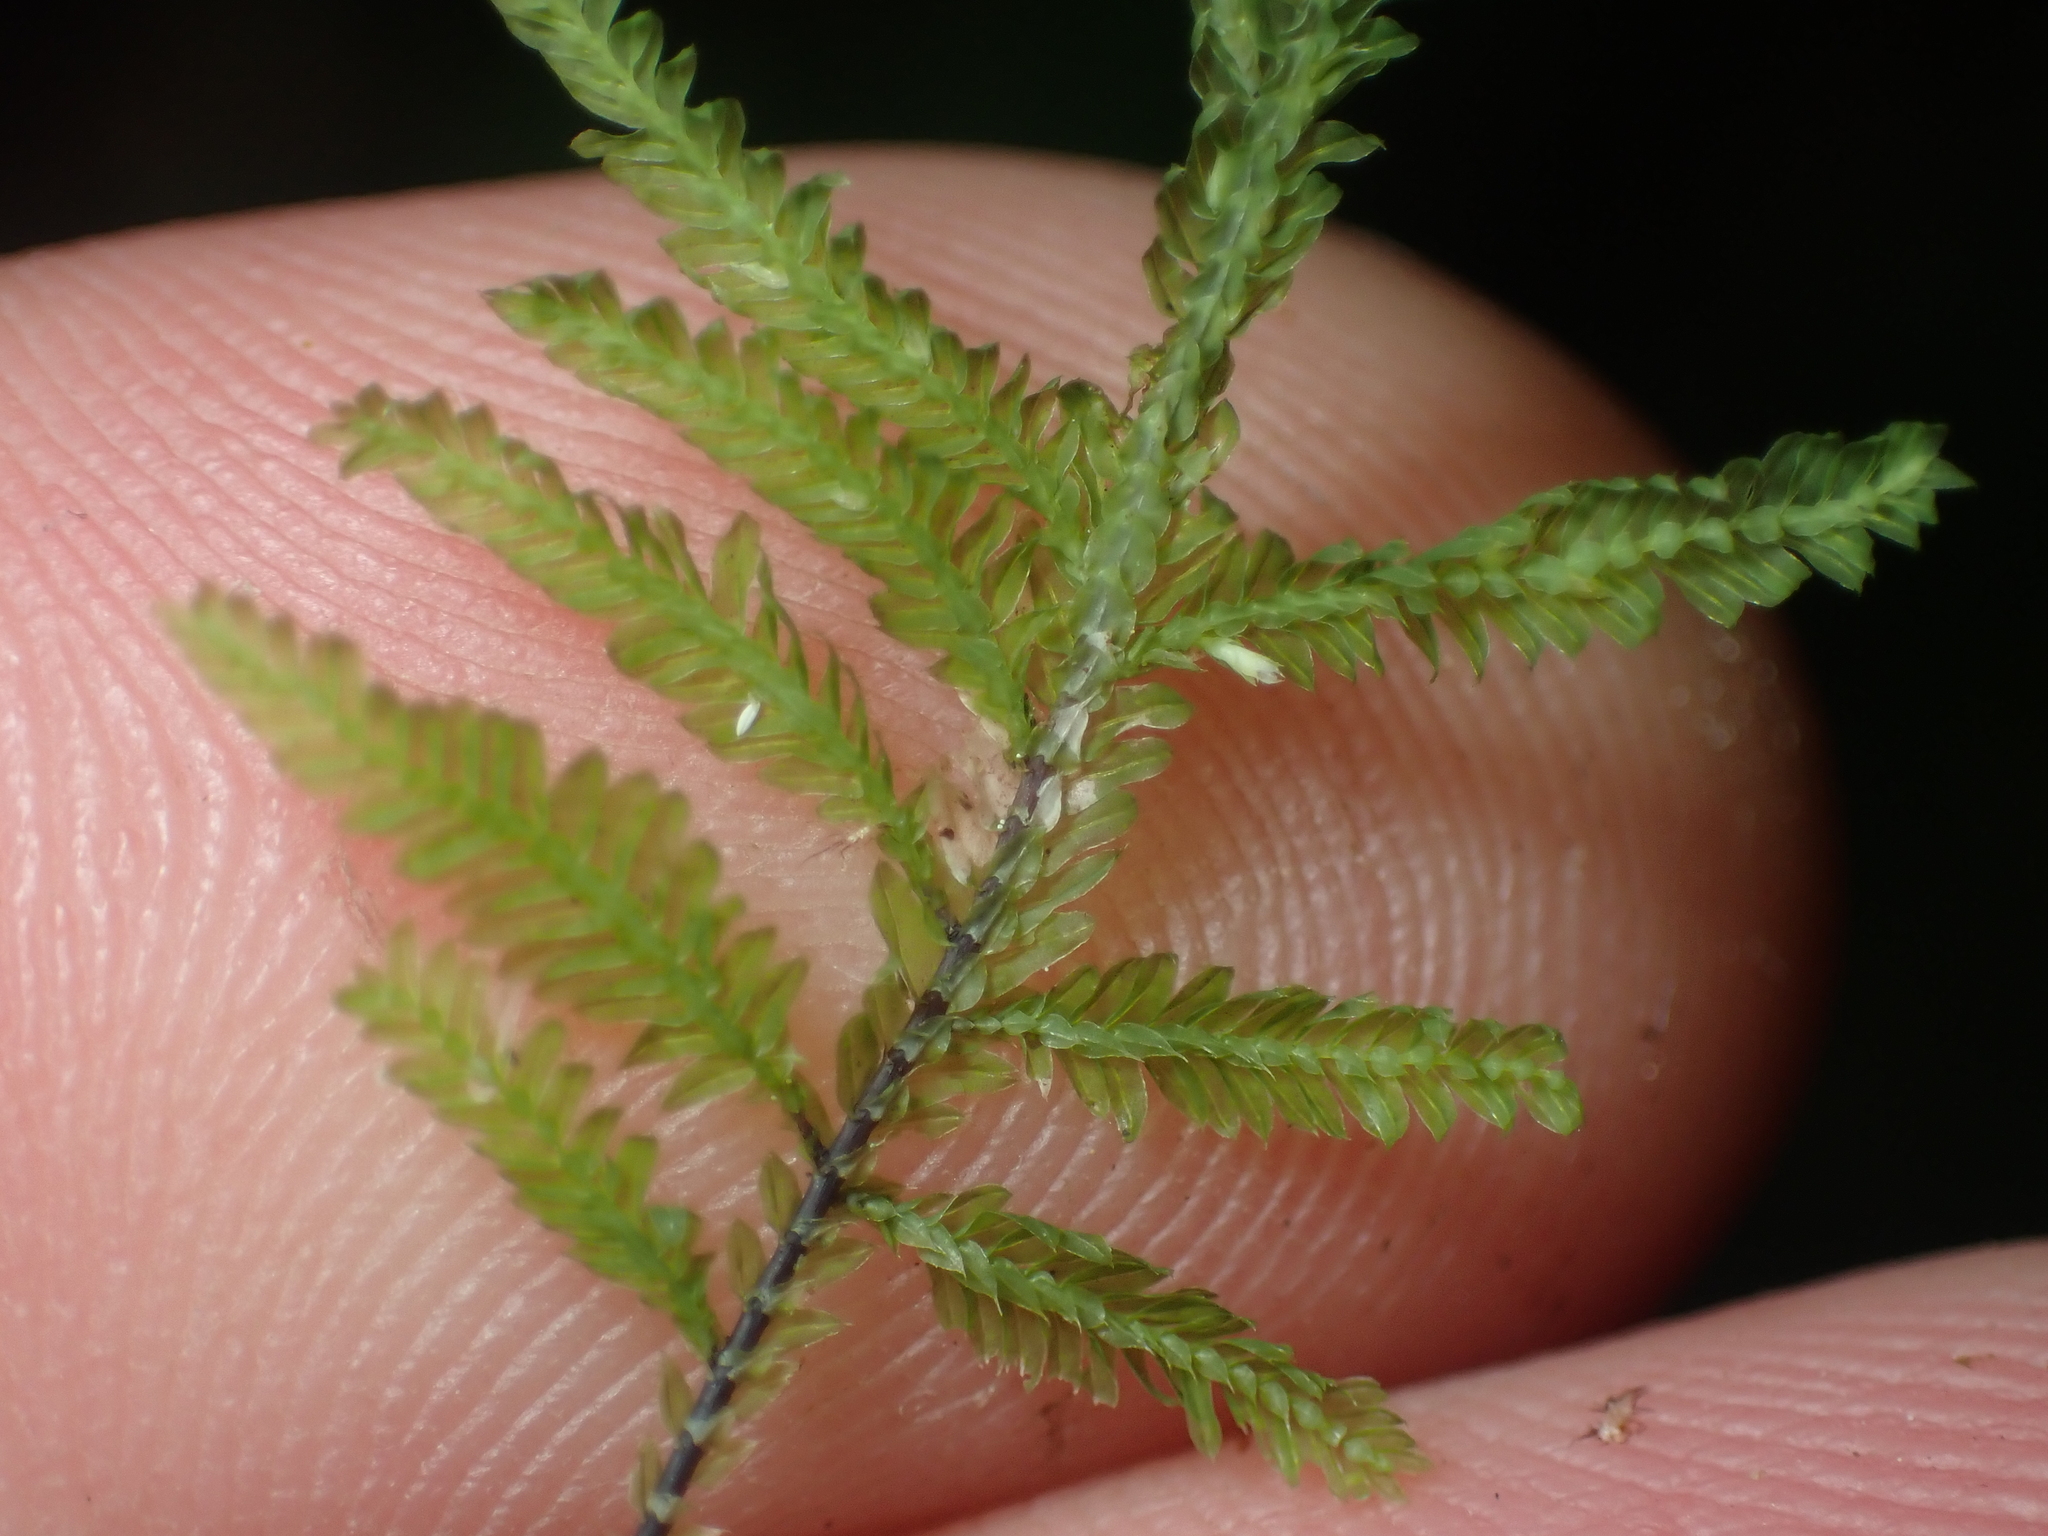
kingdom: Plantae
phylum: Bryophyta
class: Bryopsida
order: Hypopterygiales
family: Hypopterygiaceae
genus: Lopidium
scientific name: Lopidium concinnum
